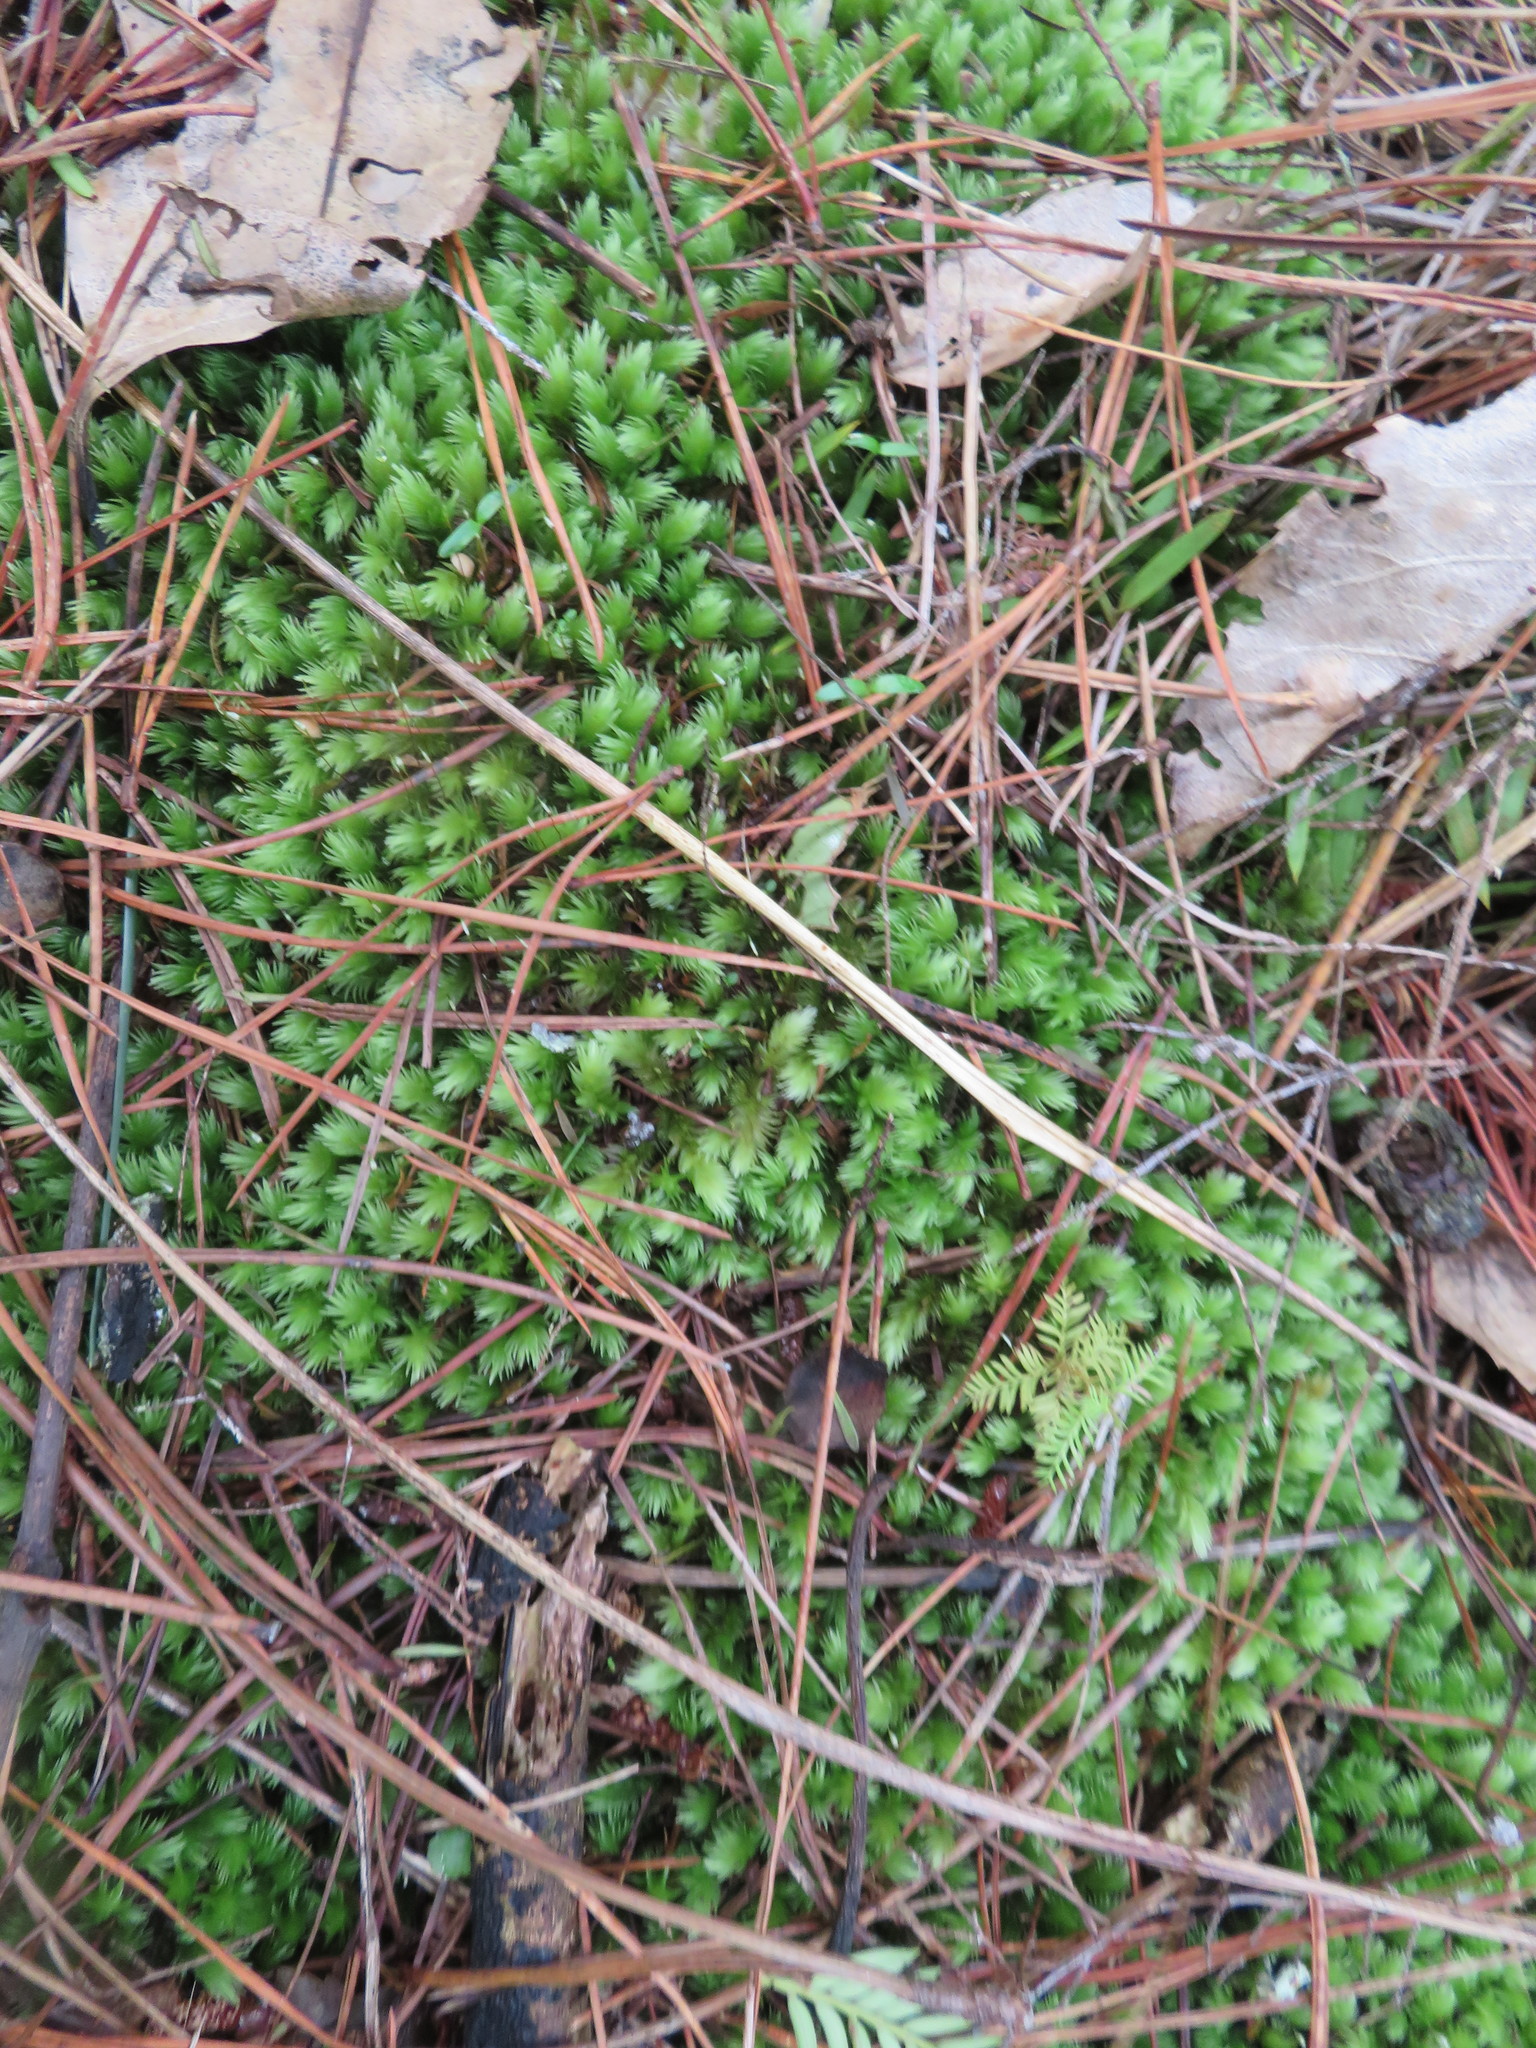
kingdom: Plantae
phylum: Tracheophyta
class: Pinopsida
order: Pinales
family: Podocarpaceae
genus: Dacrycarpus
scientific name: Dacrycarpus dacrydioides
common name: White pine
